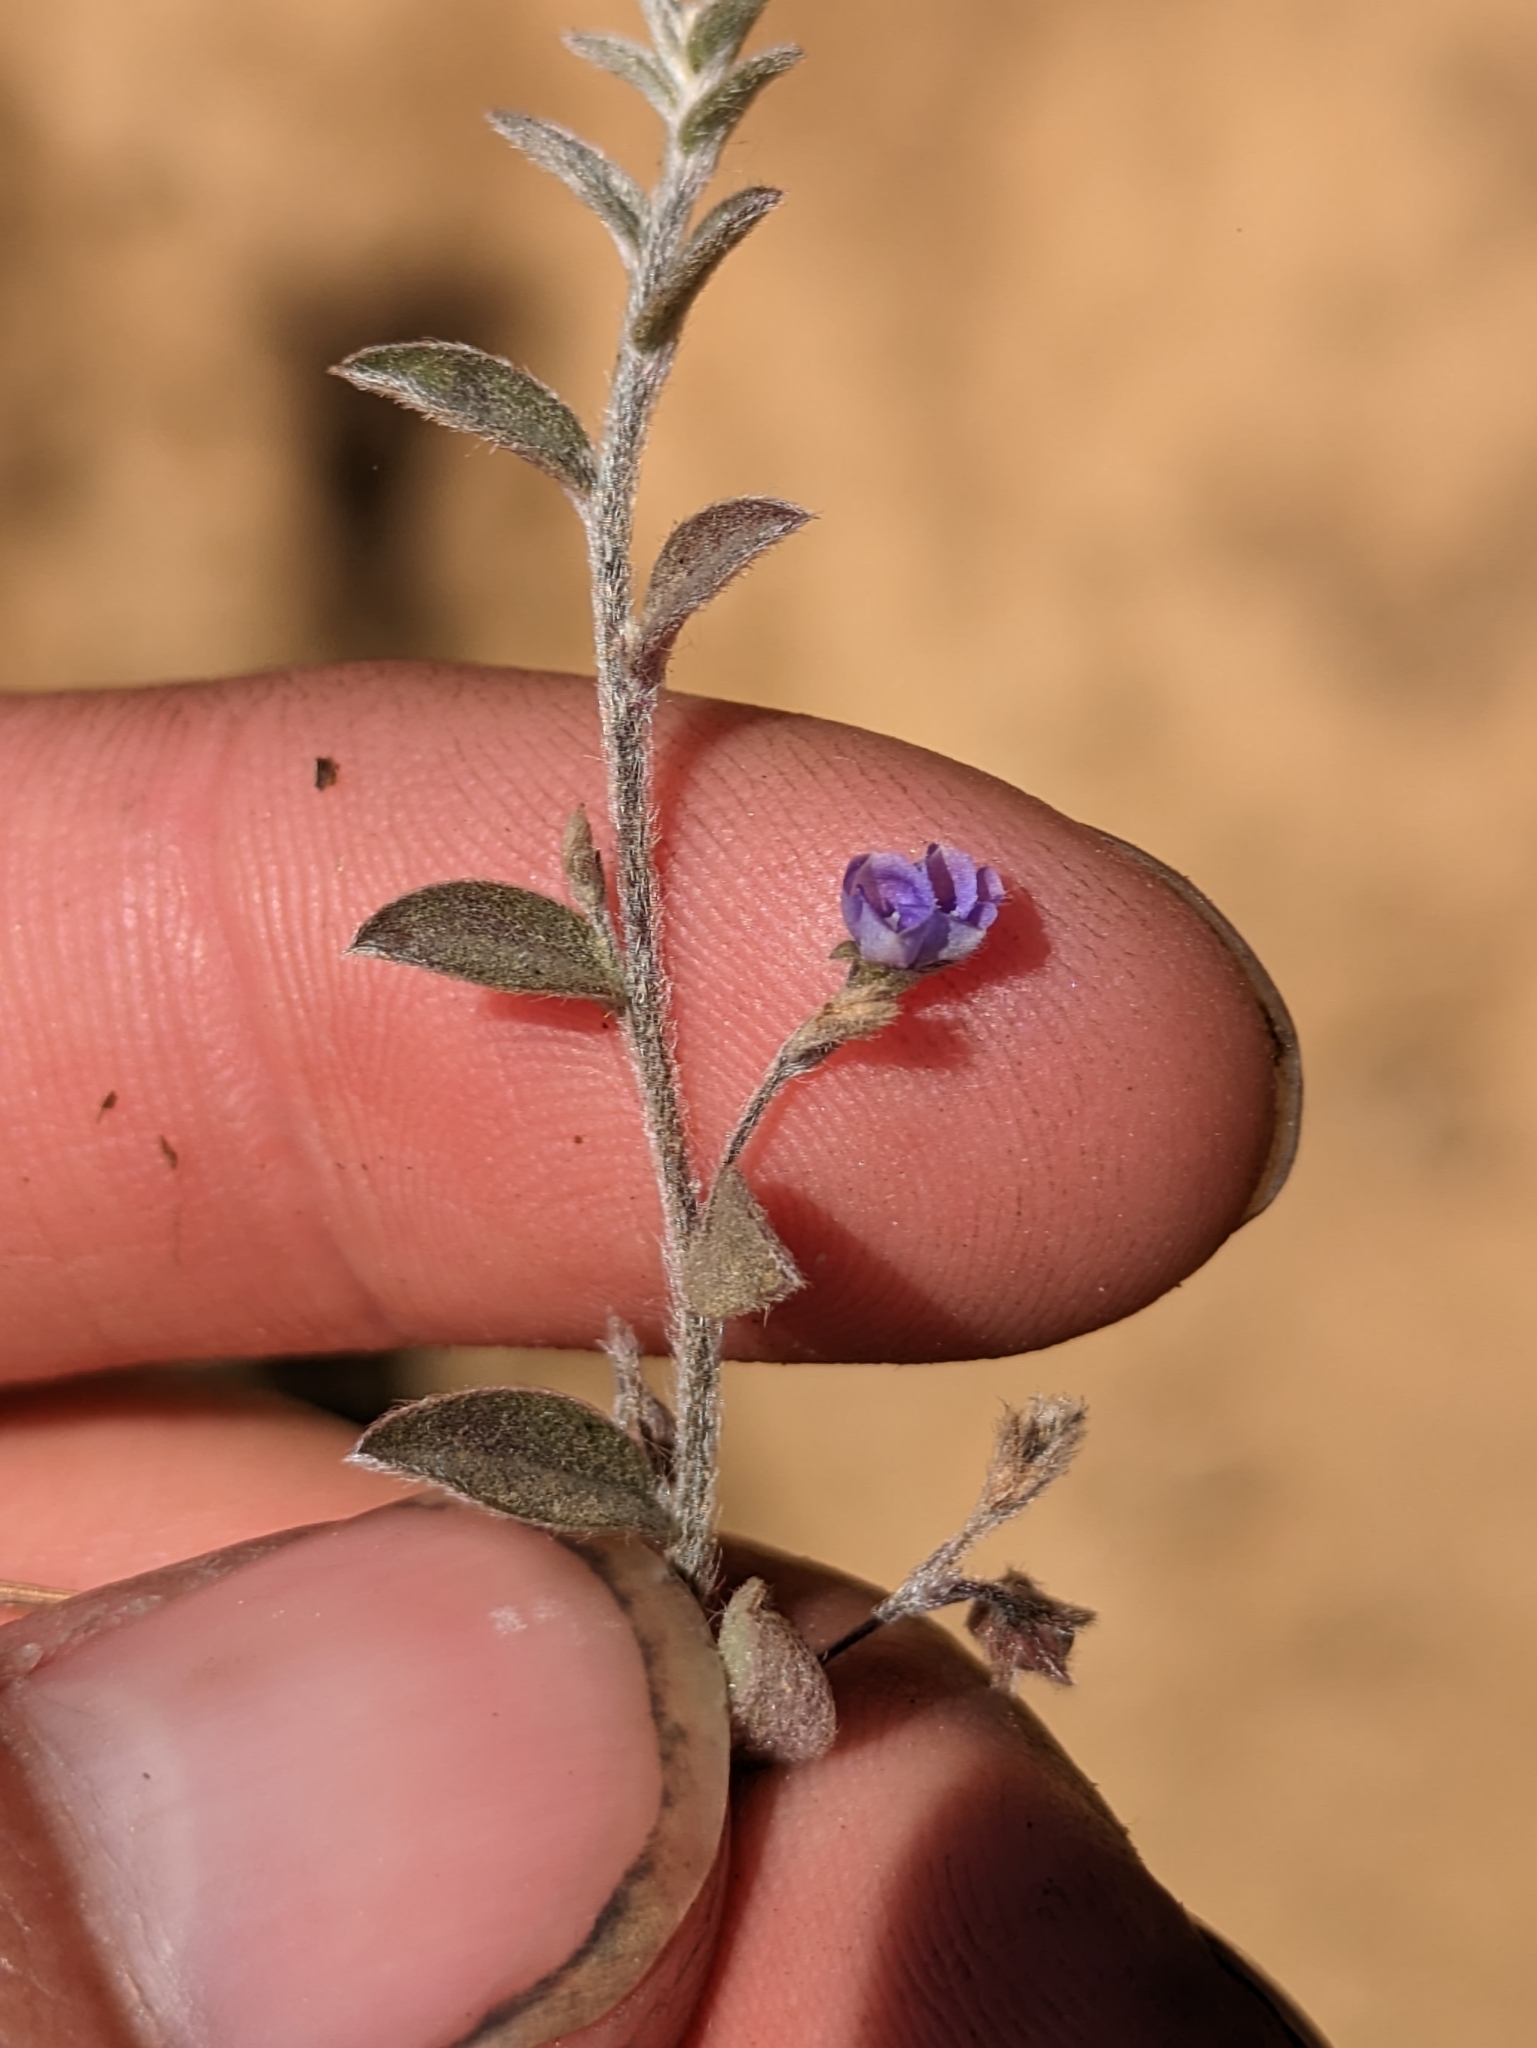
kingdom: Plantae
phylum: Tracheophyta
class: Magnoliopsida
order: Solanales
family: Convolvulaceae
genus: Evolvulus
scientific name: Evolvulus alsinoides
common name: Slender dwarf morning-glory
